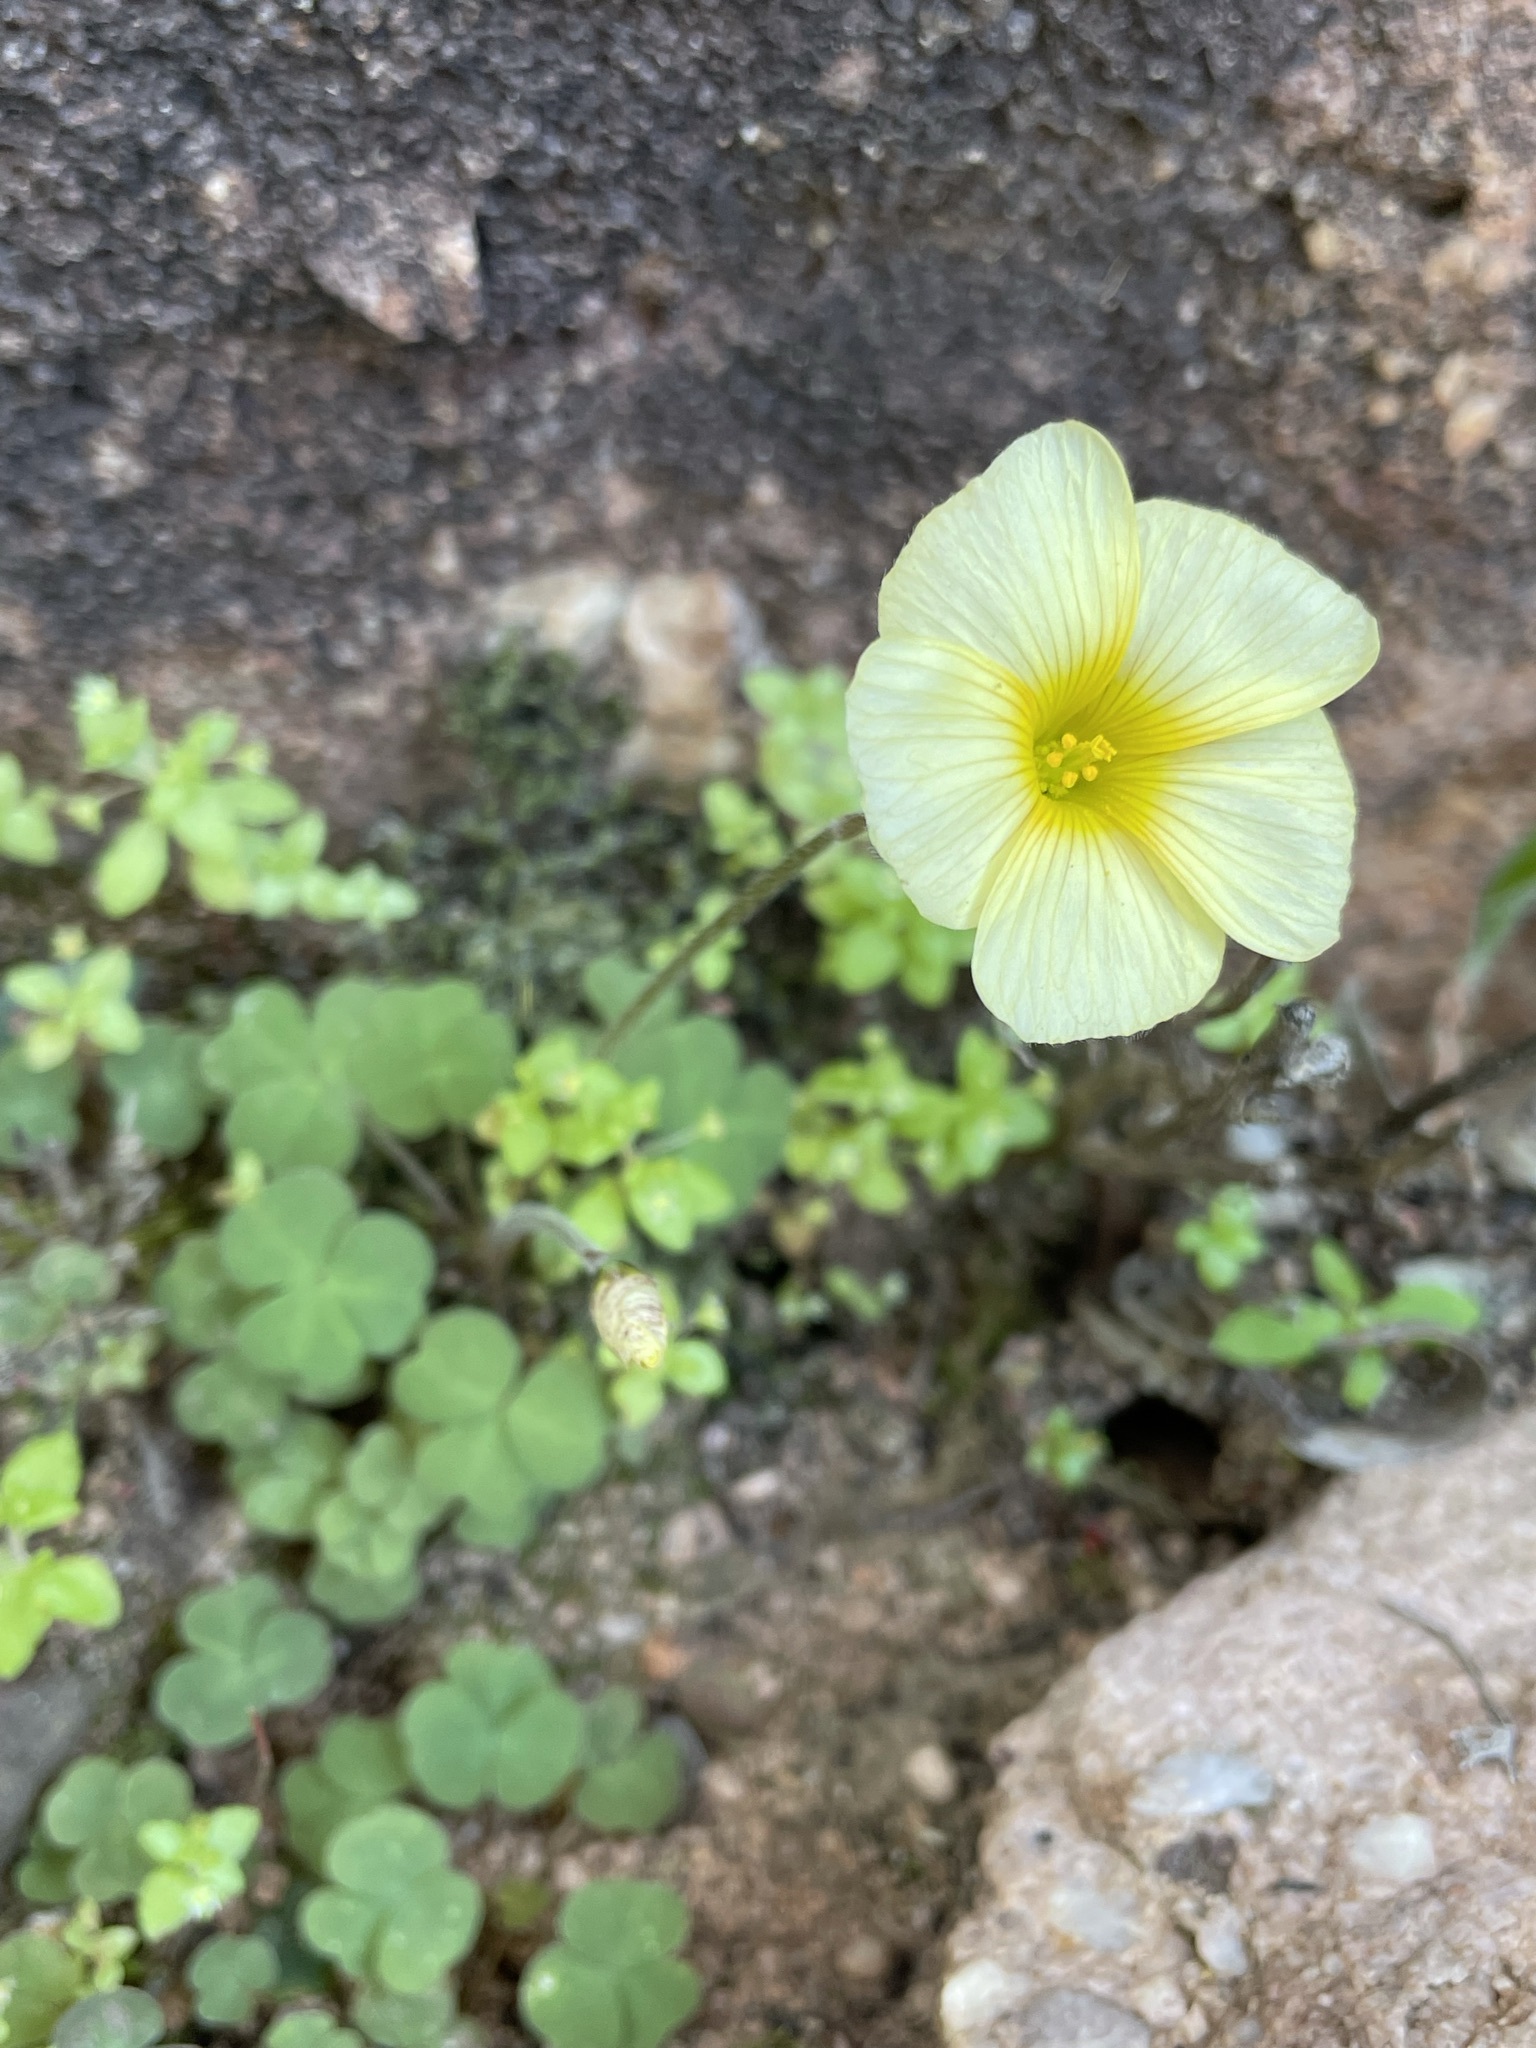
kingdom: Plantae
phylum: Tracheophyta
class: Magnoliopsida
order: Oxalidales
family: Oxalidaceae
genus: Oxalis
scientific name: Oxalis obtusa
